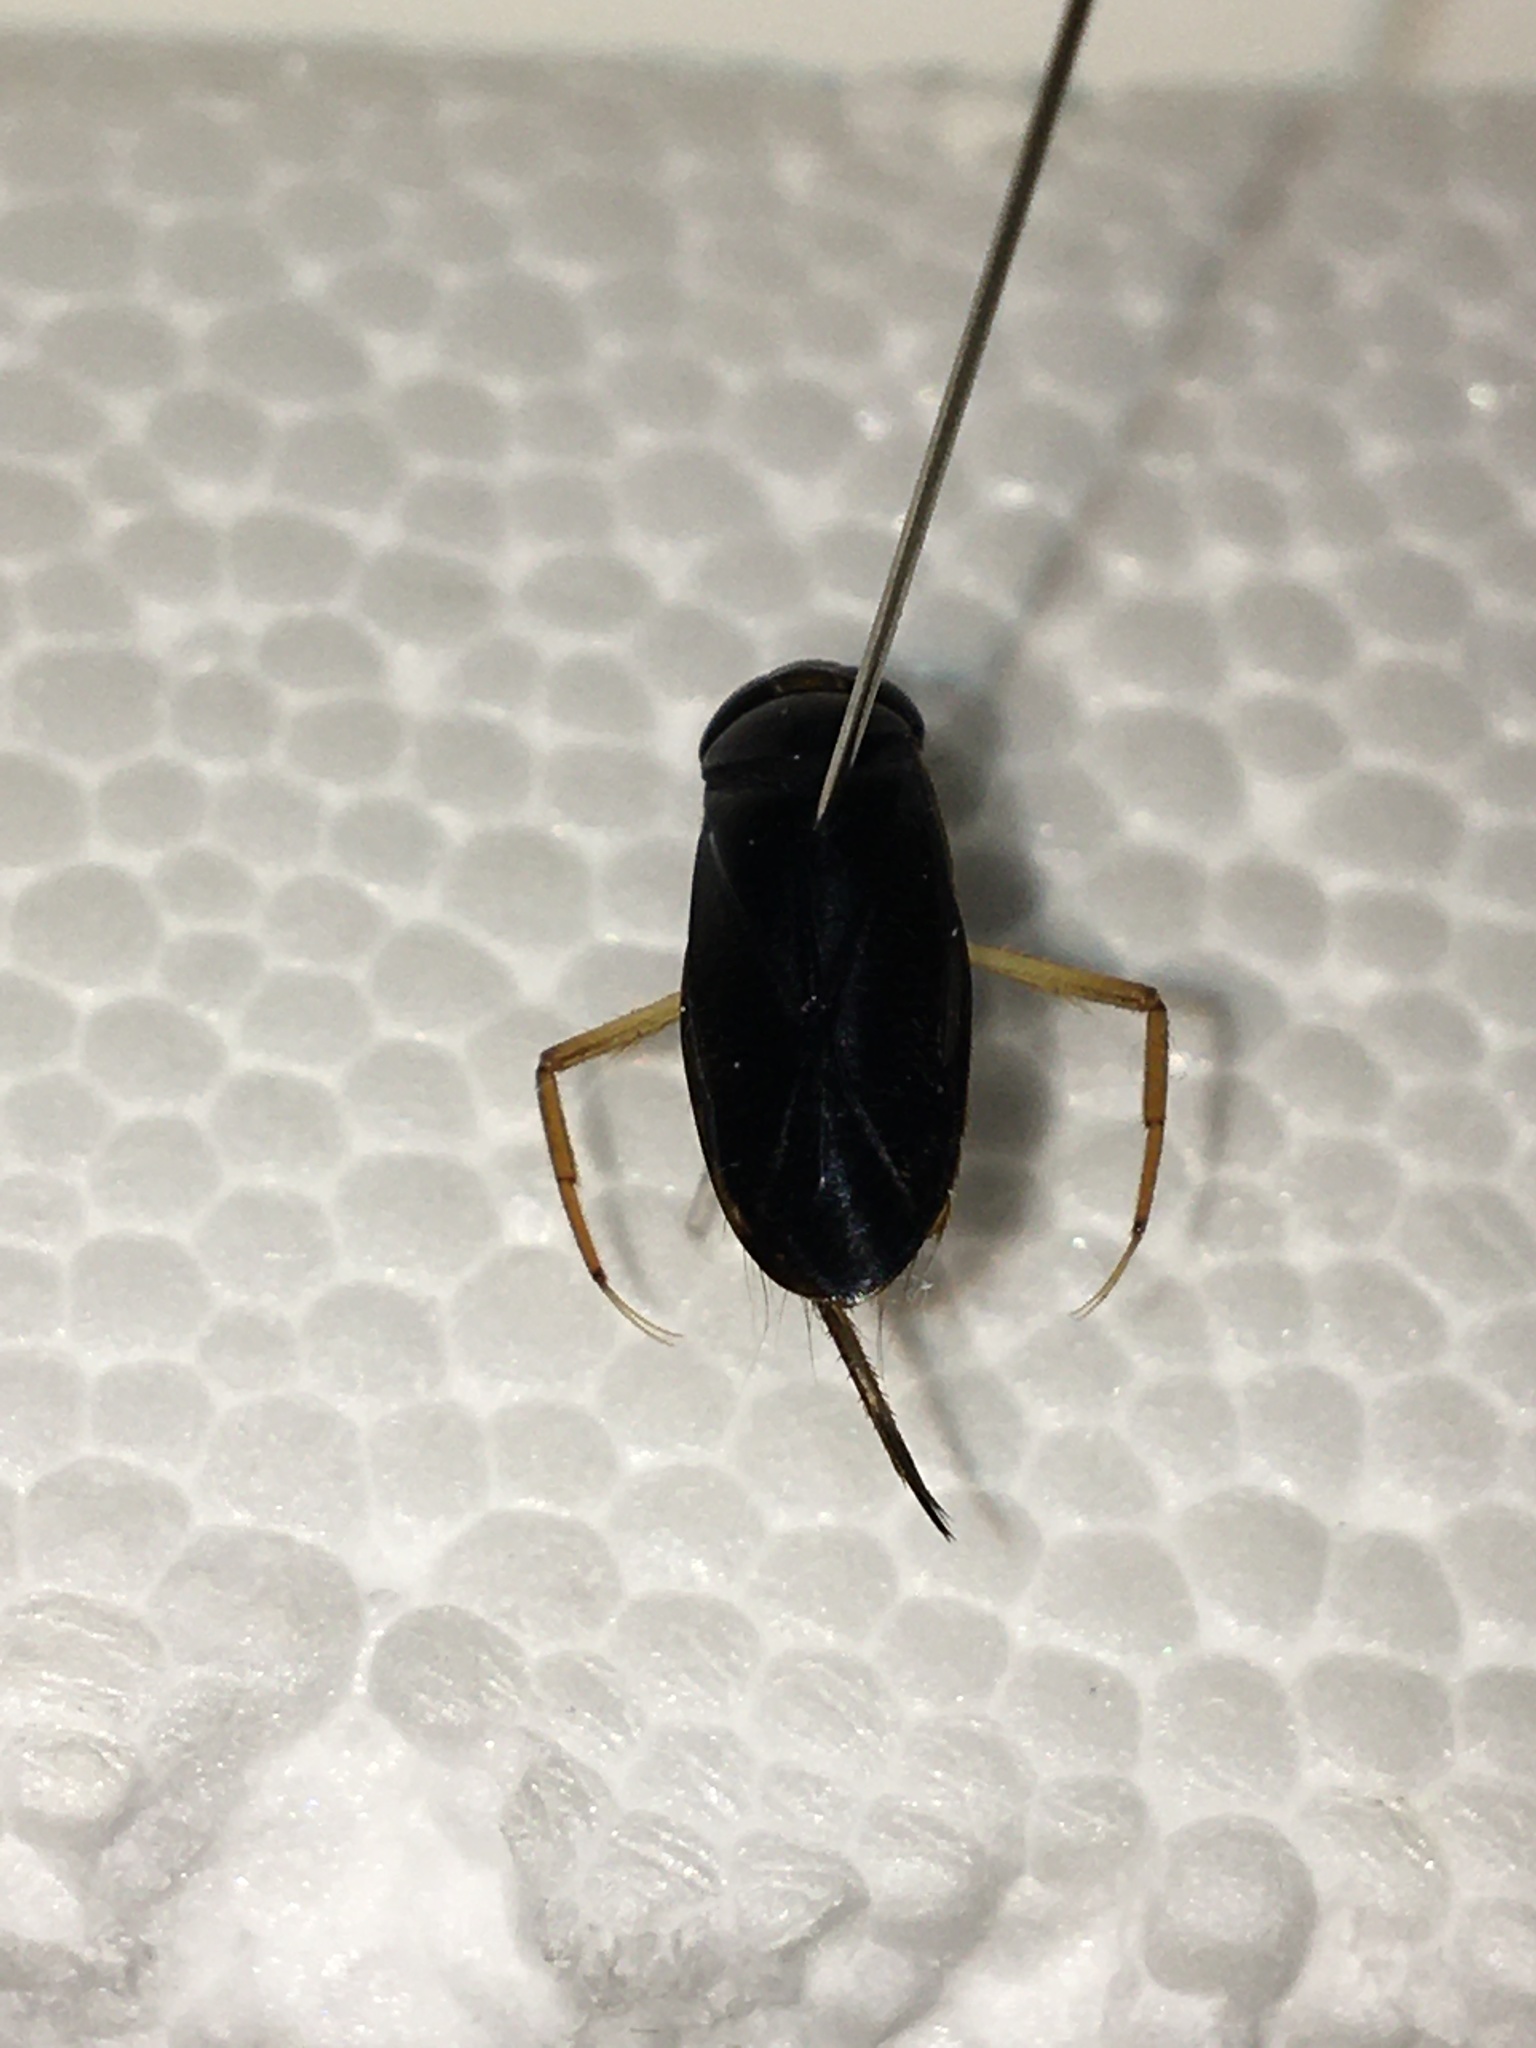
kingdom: Animalia
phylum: Arthropoda
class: Insecta
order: Hemiptera
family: Corixidae
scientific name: Corixidae
